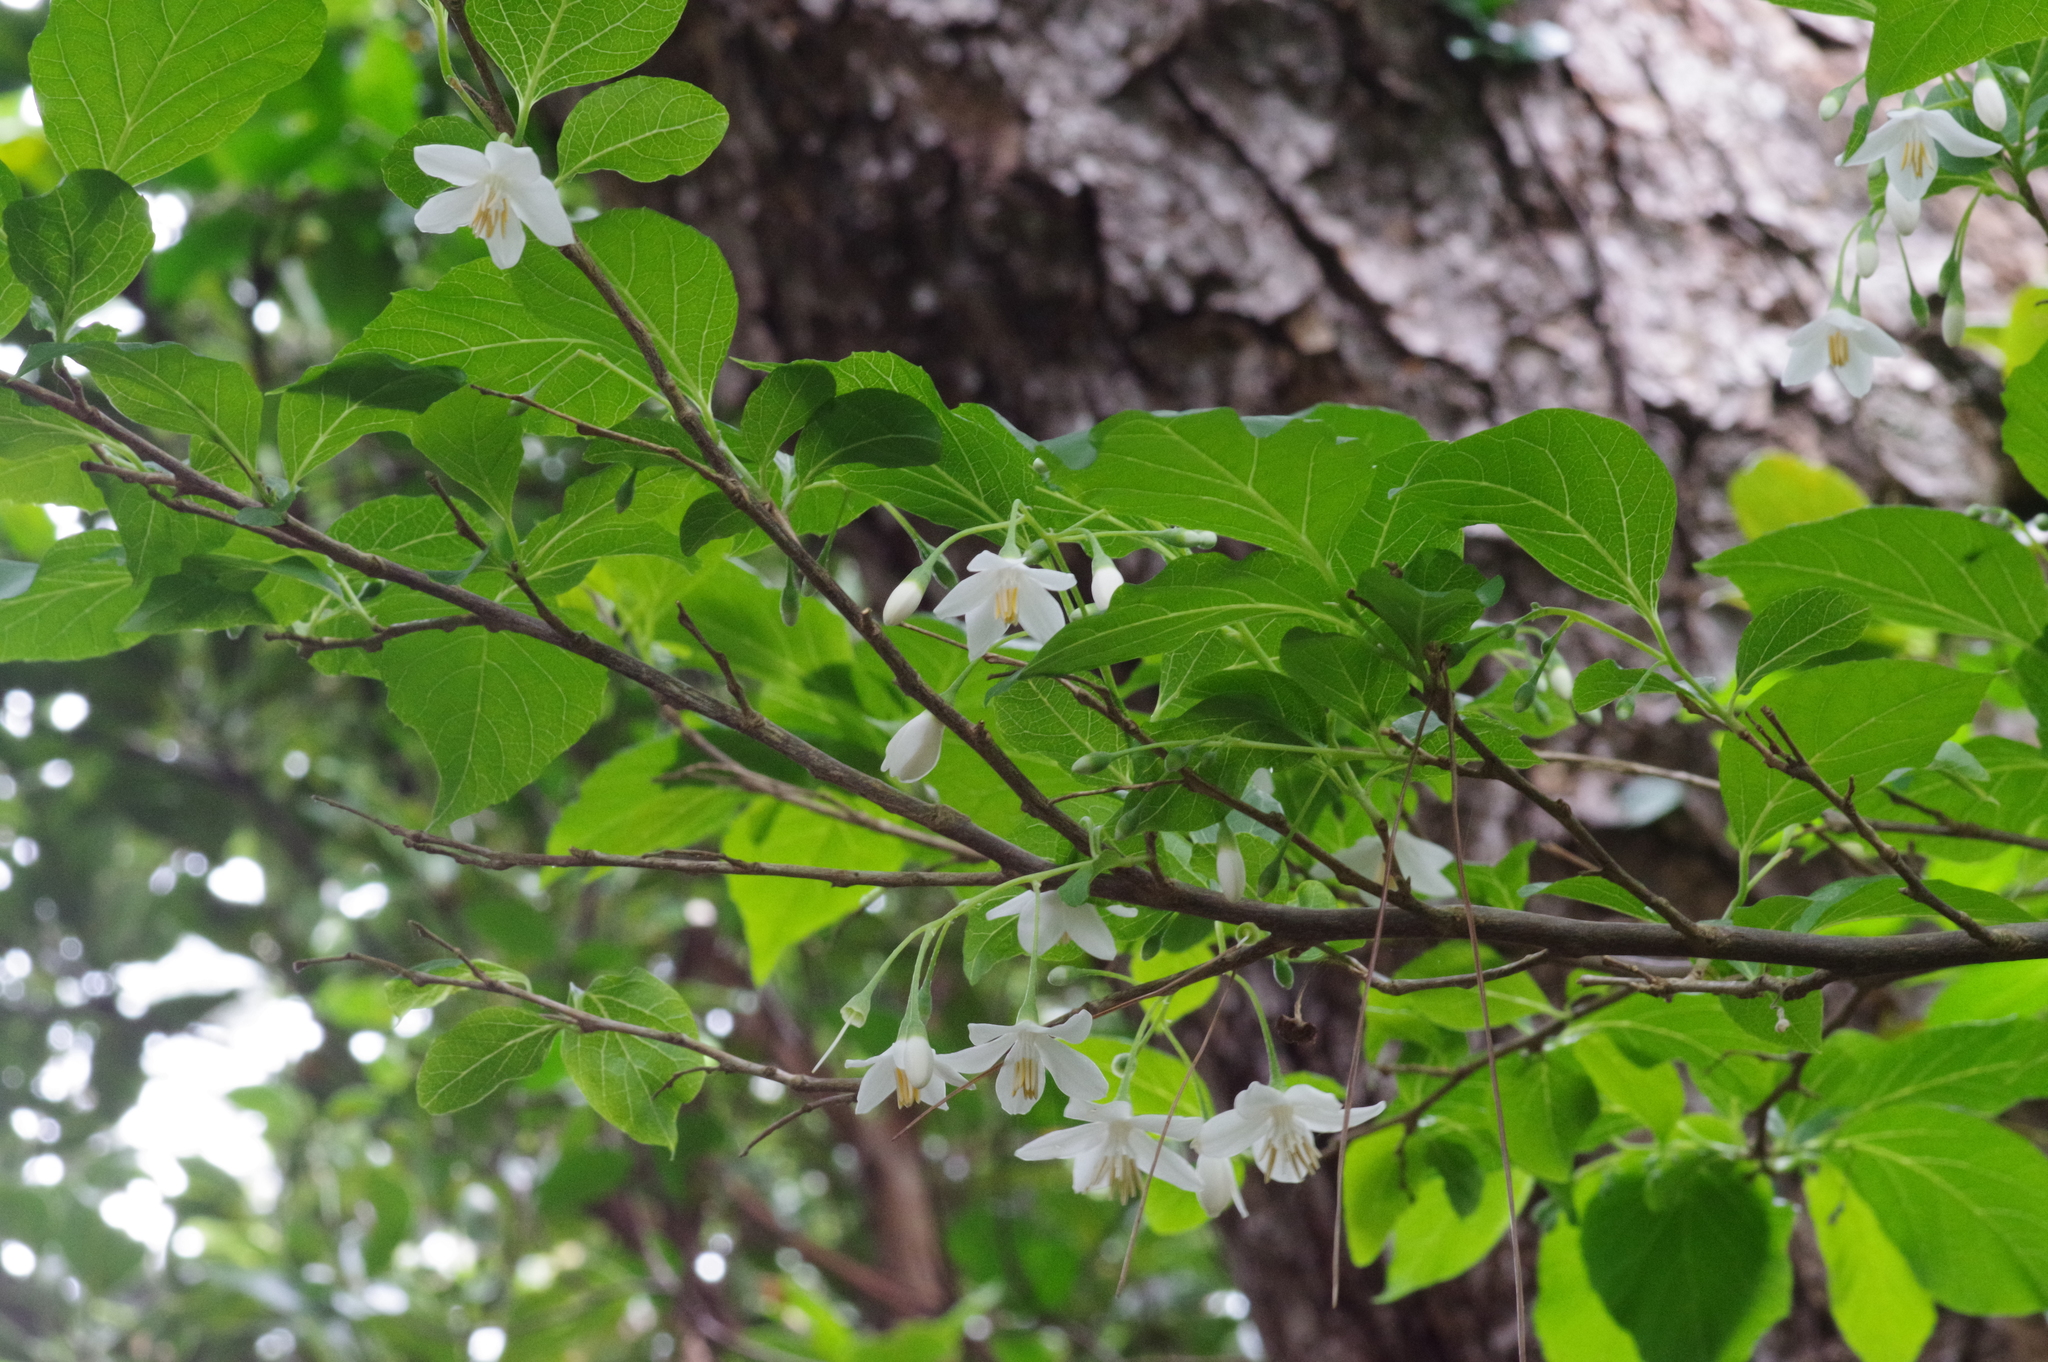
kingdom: Plantae
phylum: Tracheophyta
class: Magnoliopsida
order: Ericales
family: Styracaceae
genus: Styrax
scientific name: Styrax japonicus
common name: Japanese snowbell
